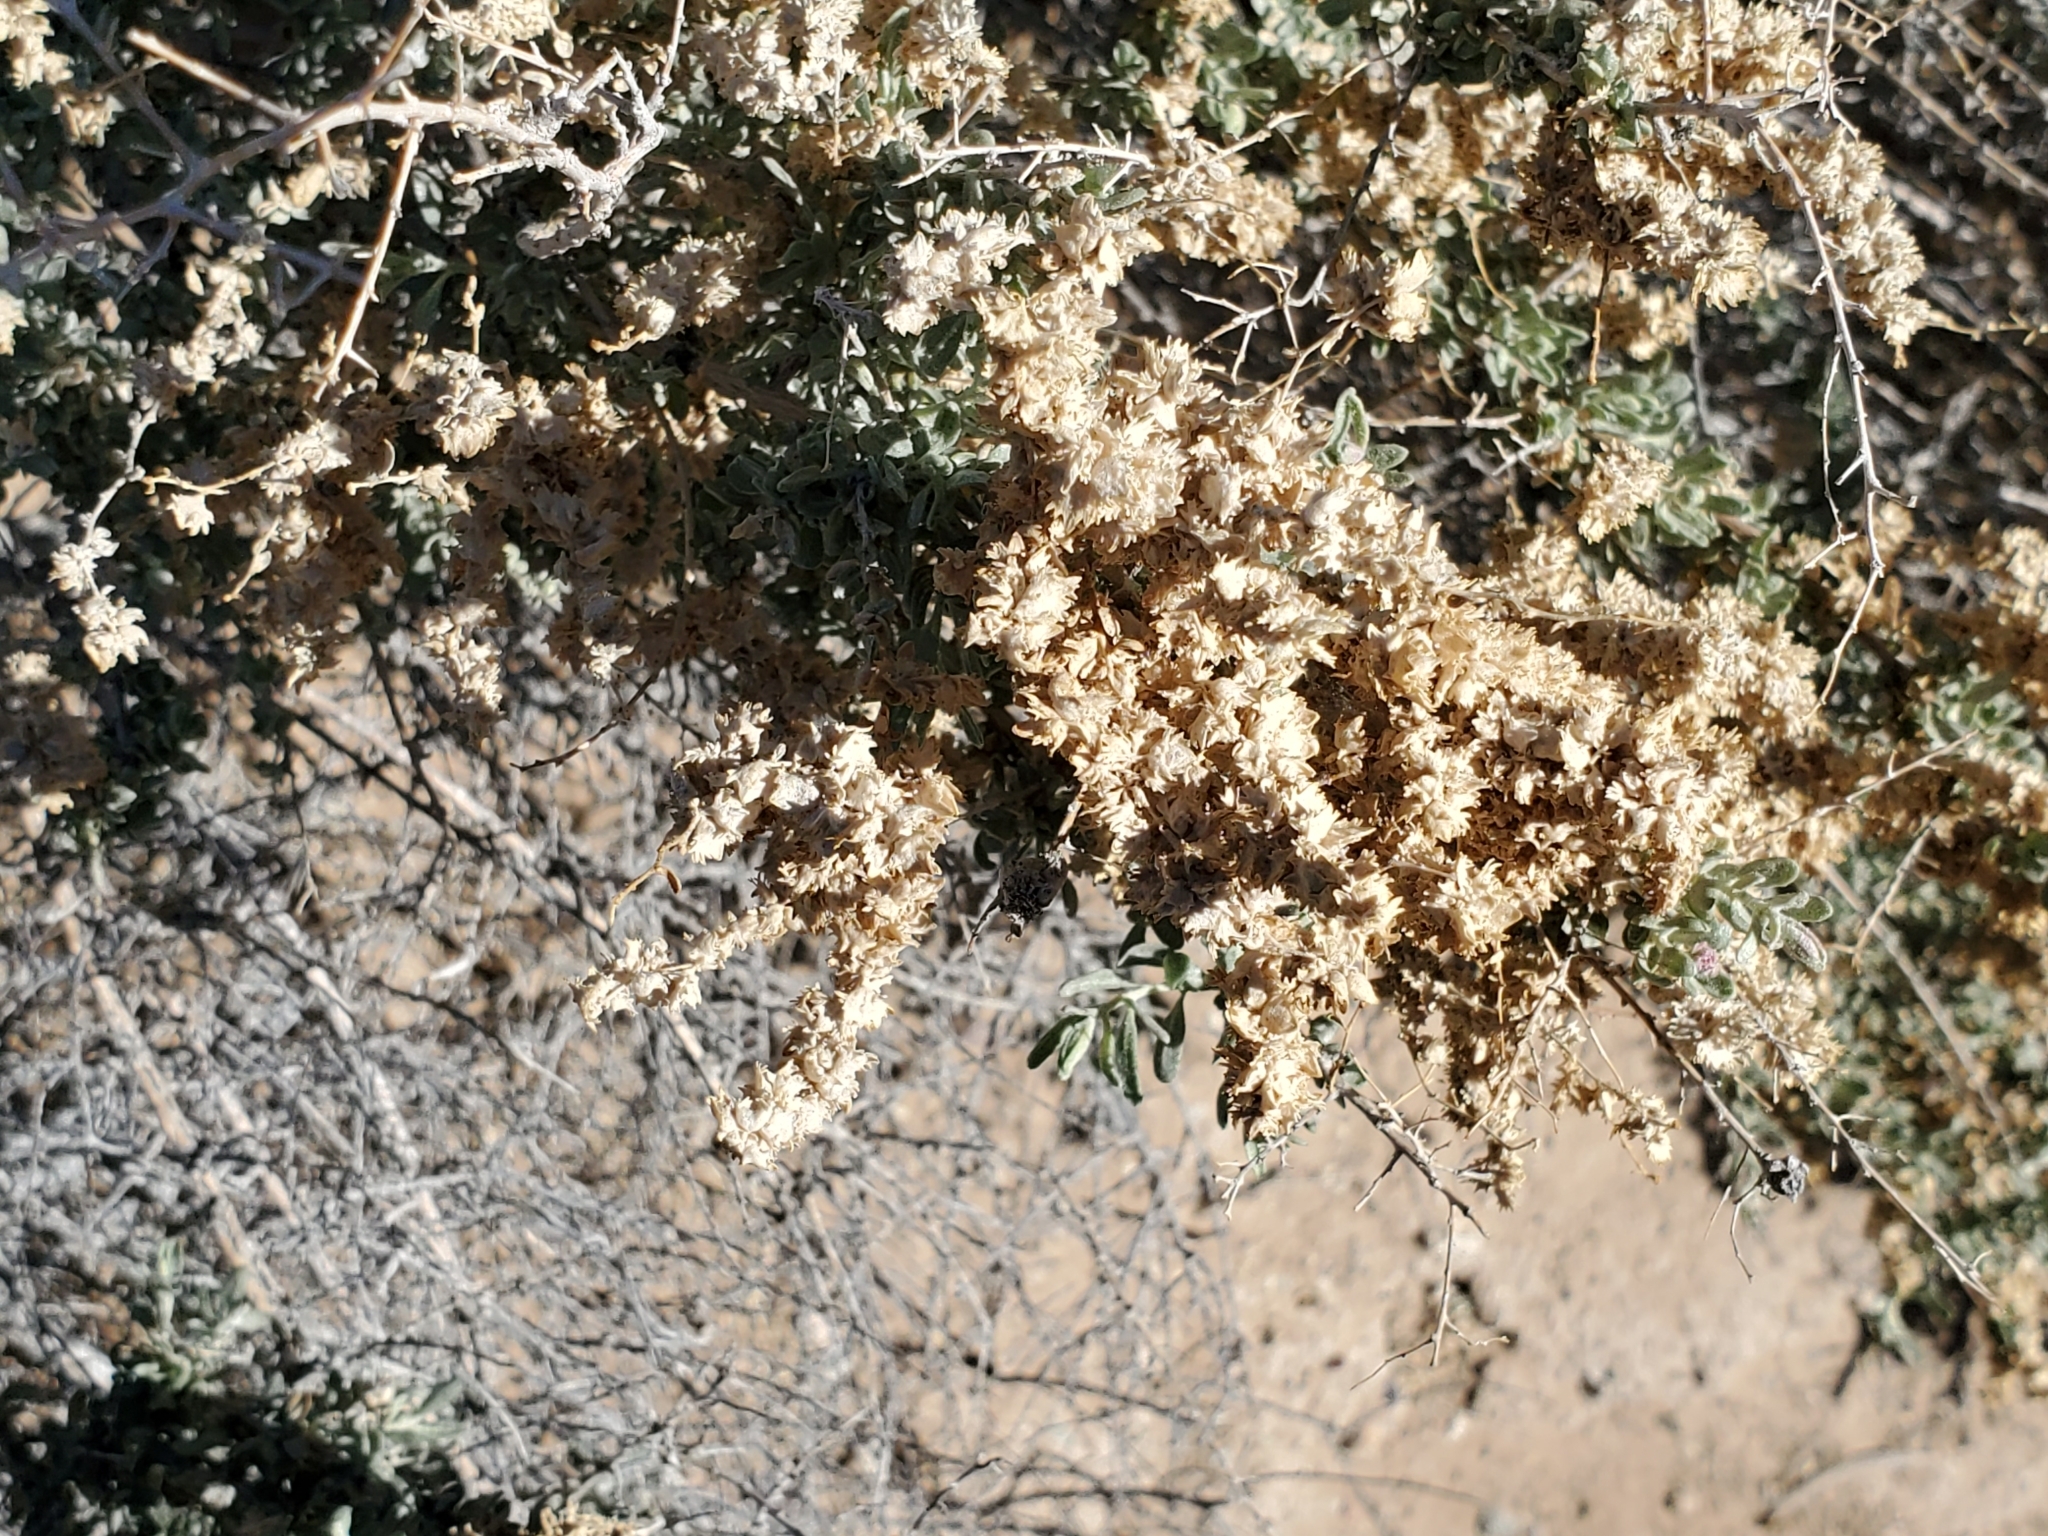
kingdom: Plantae
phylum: Tracheophyta
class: Magnoliopsida
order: Caryophyllales
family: Amaranthaceae
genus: Atriplex
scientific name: Atriplex polycarpa
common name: Desert saltbush
